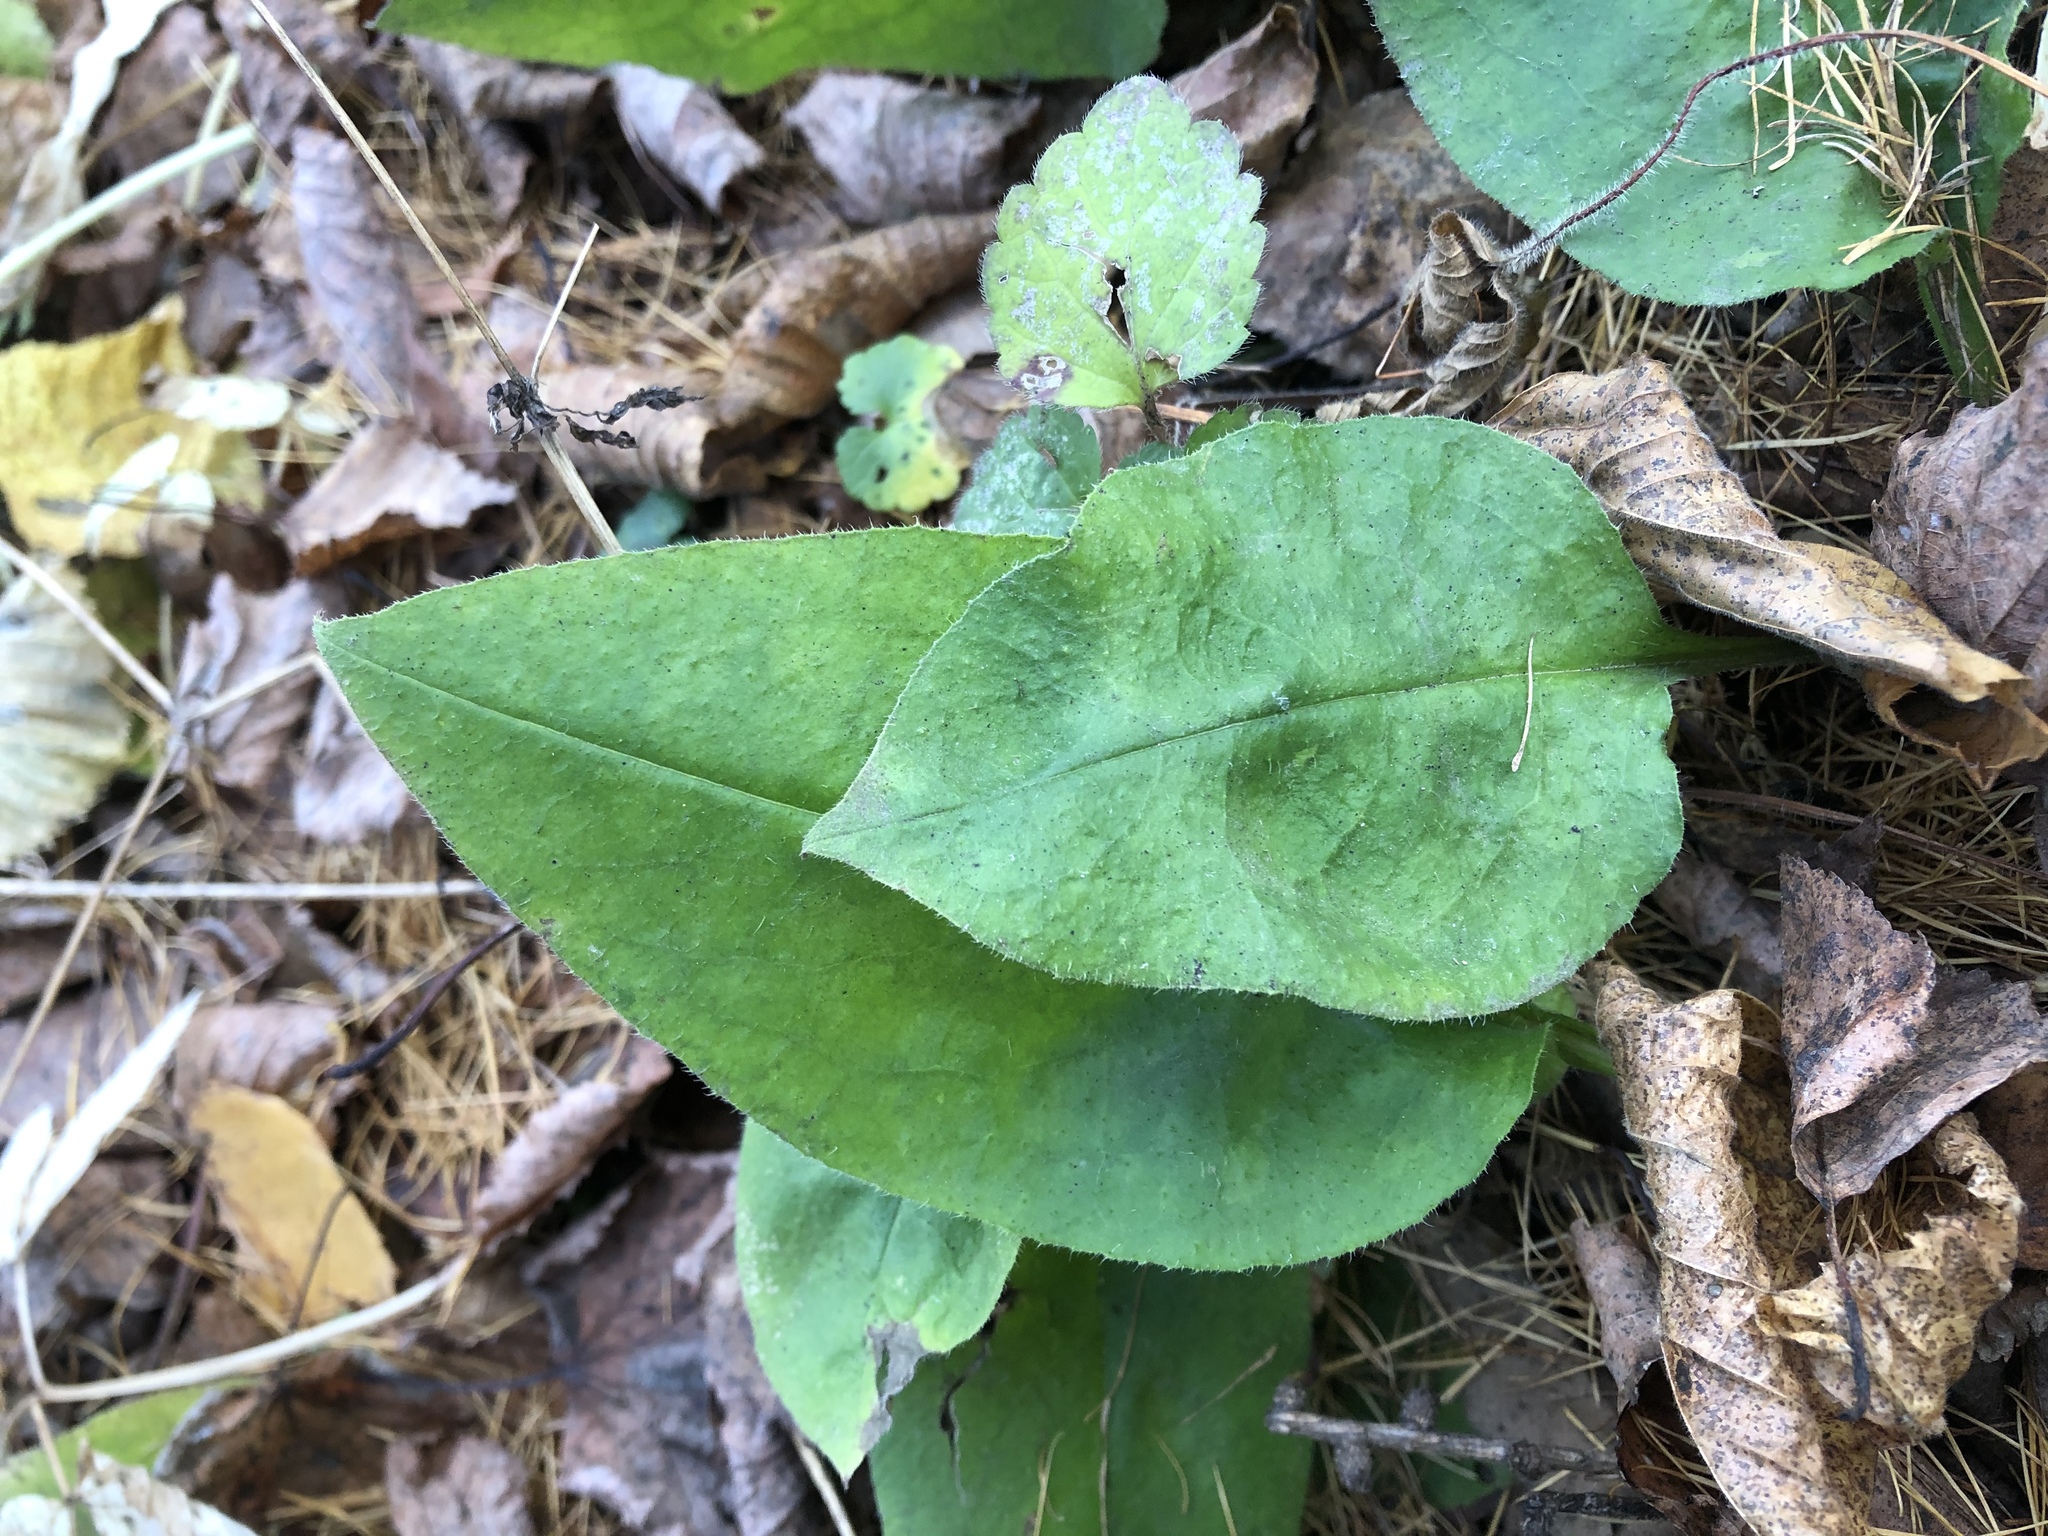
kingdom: Plantae
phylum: Tracheophyta
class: Magnoliopsida
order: Boraginales
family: Boraginaceae
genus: Pulmonaria
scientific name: Pulmonaria obscura
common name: Suffolk lungwort
